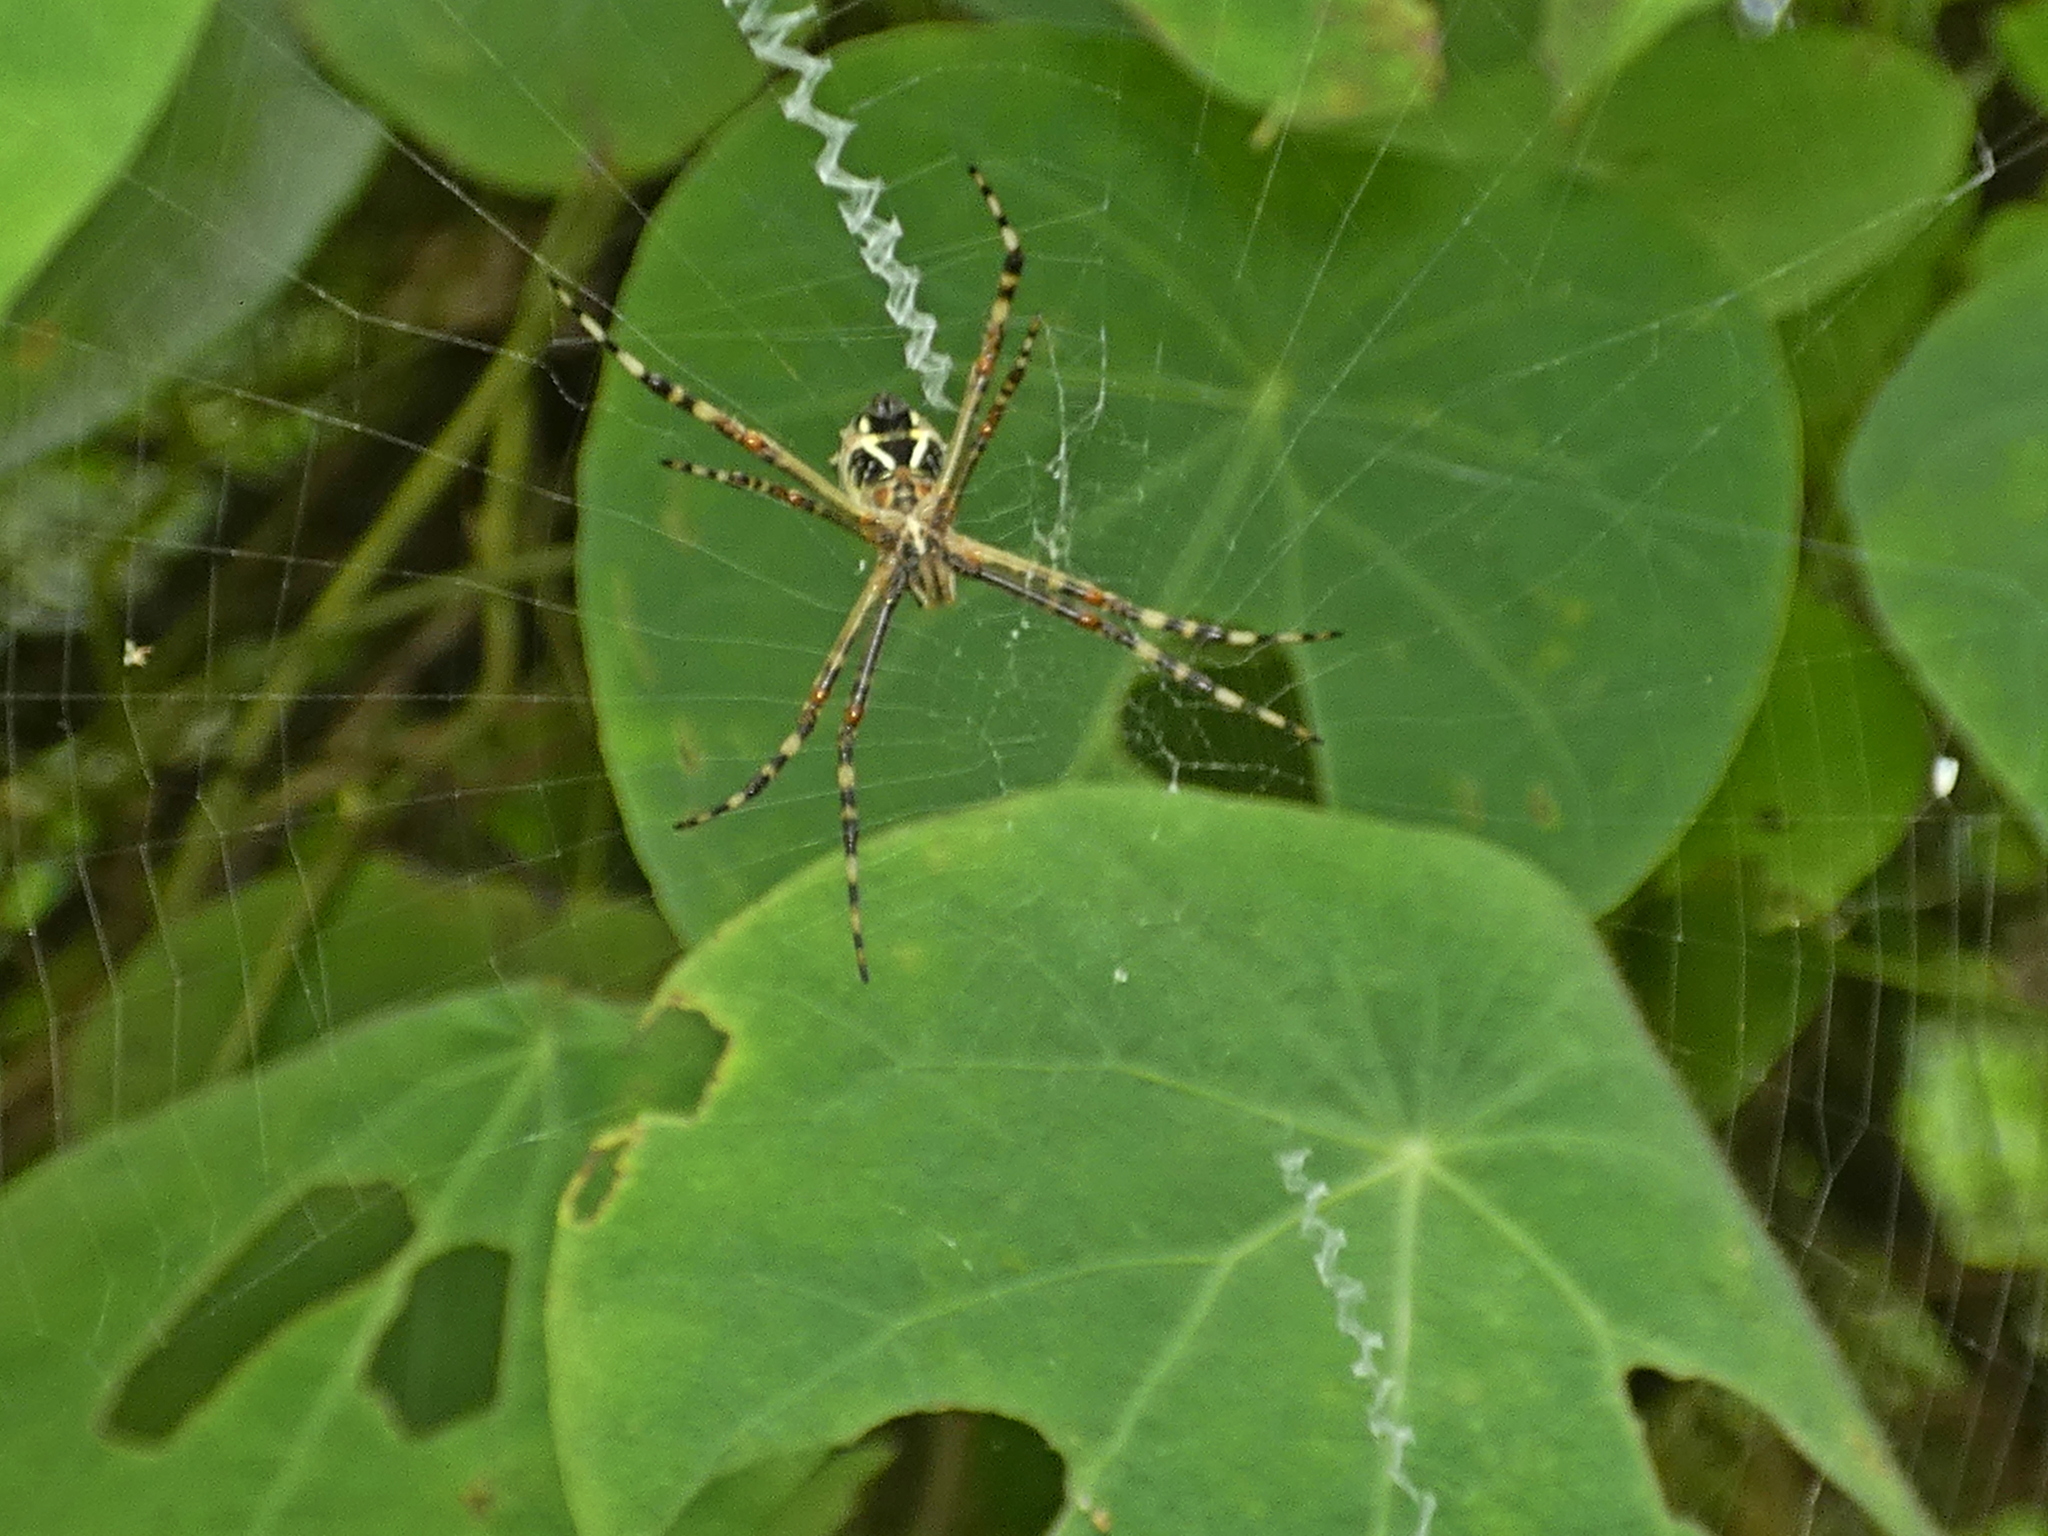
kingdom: Animalia
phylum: Arthropoda
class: Arachnida
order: Araneae
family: Araneidae
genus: Argiope
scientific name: Argiope argentata
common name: Orb weavers
